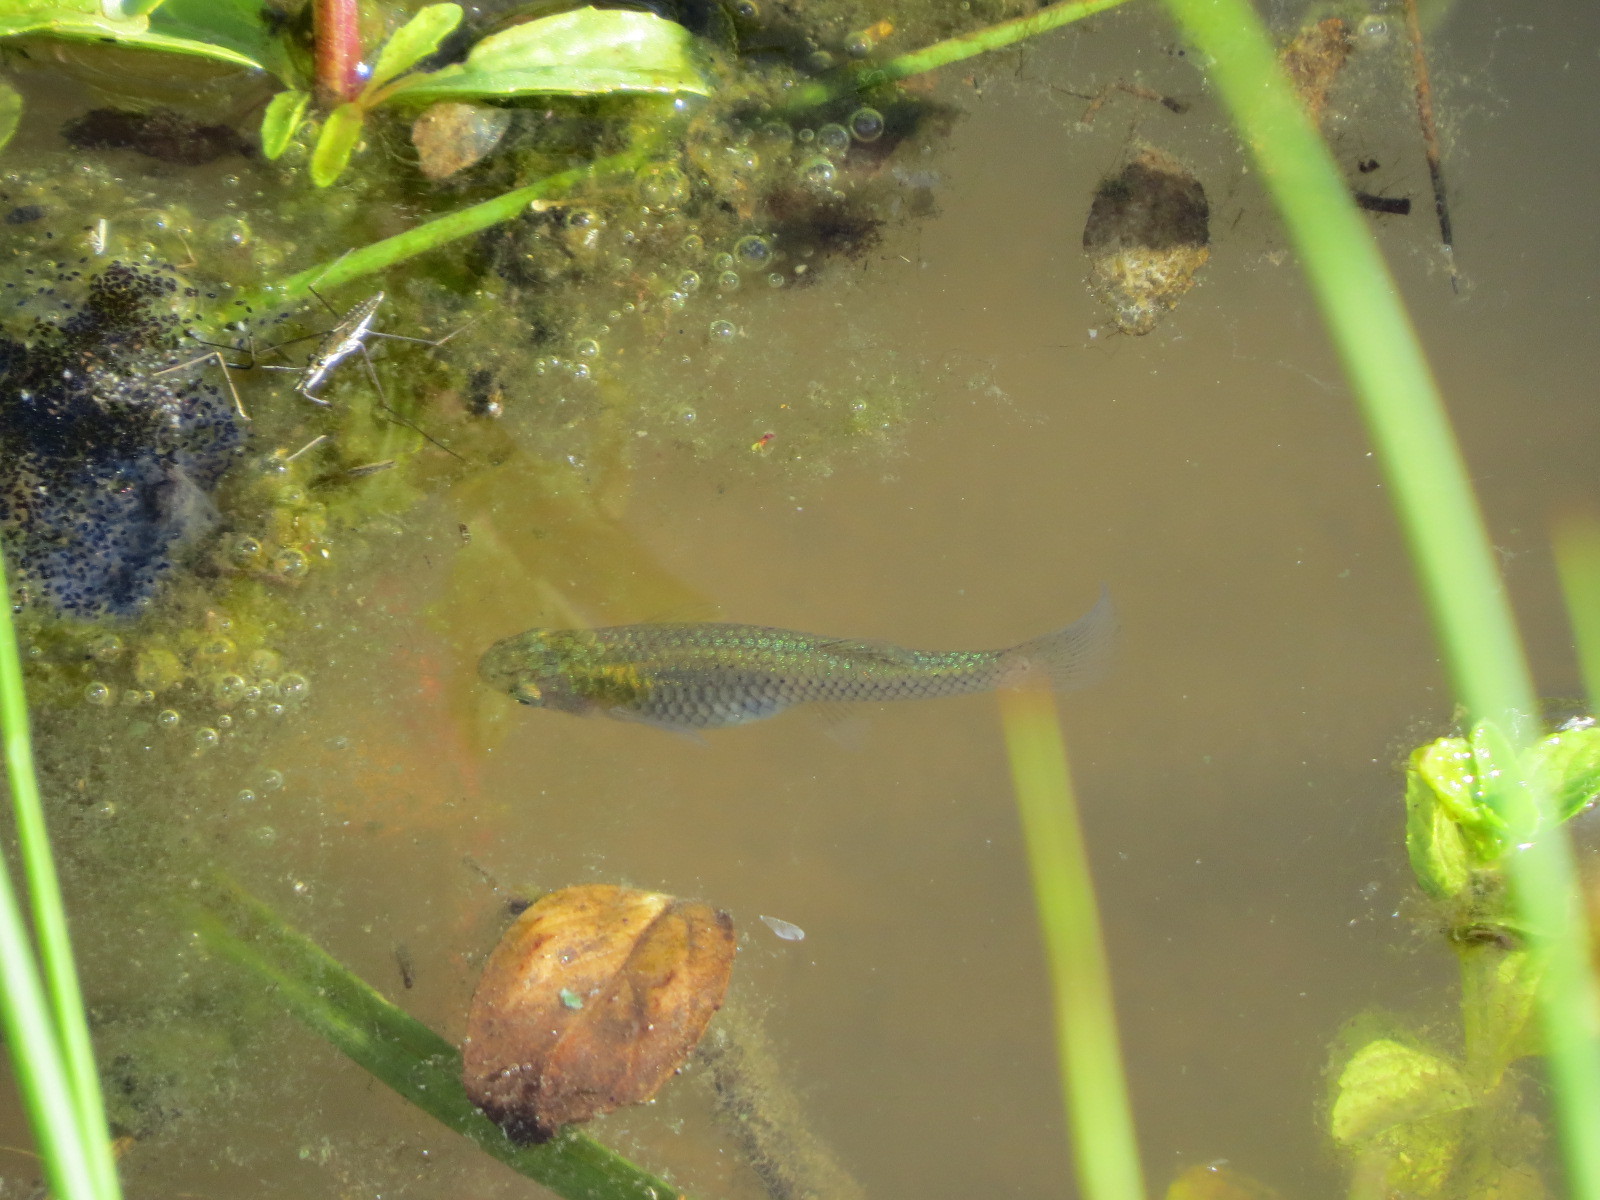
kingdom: Animalia
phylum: Chordata
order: Cyprinodontiformes
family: Poeciliidae
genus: Gambusia
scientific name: Gambusia affinis
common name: Mosquitofish
